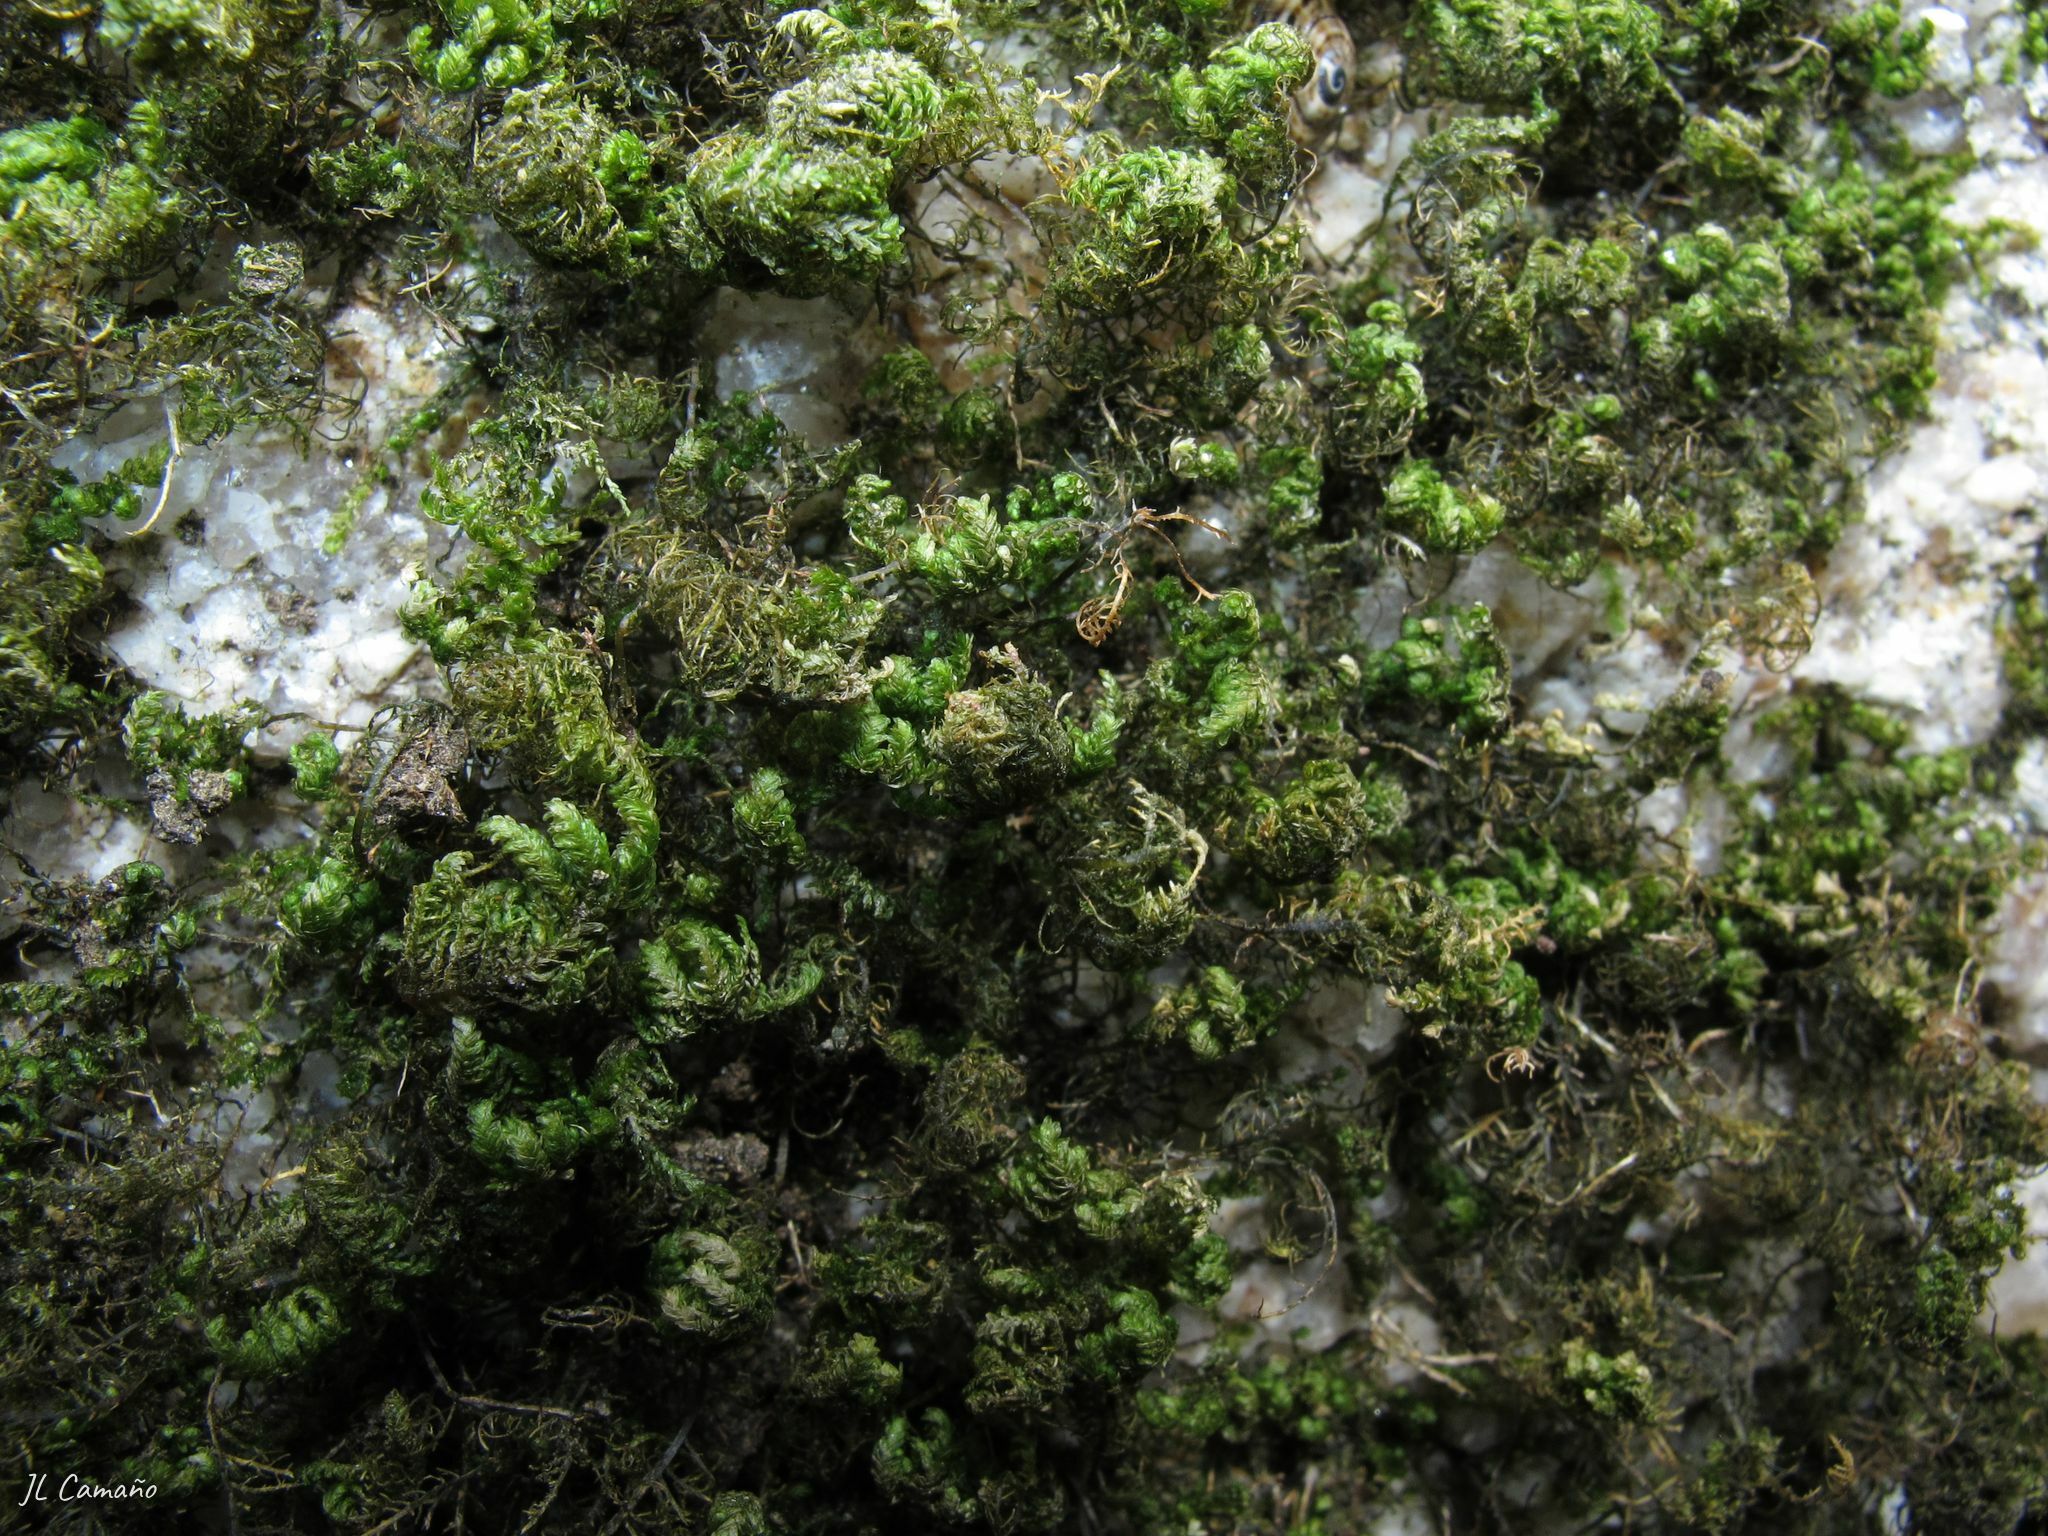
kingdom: Plantae
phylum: Bryophyta
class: Bryopsida
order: Hypnales
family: Neckeraceae
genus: Leptodon
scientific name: Leptodon smithii
